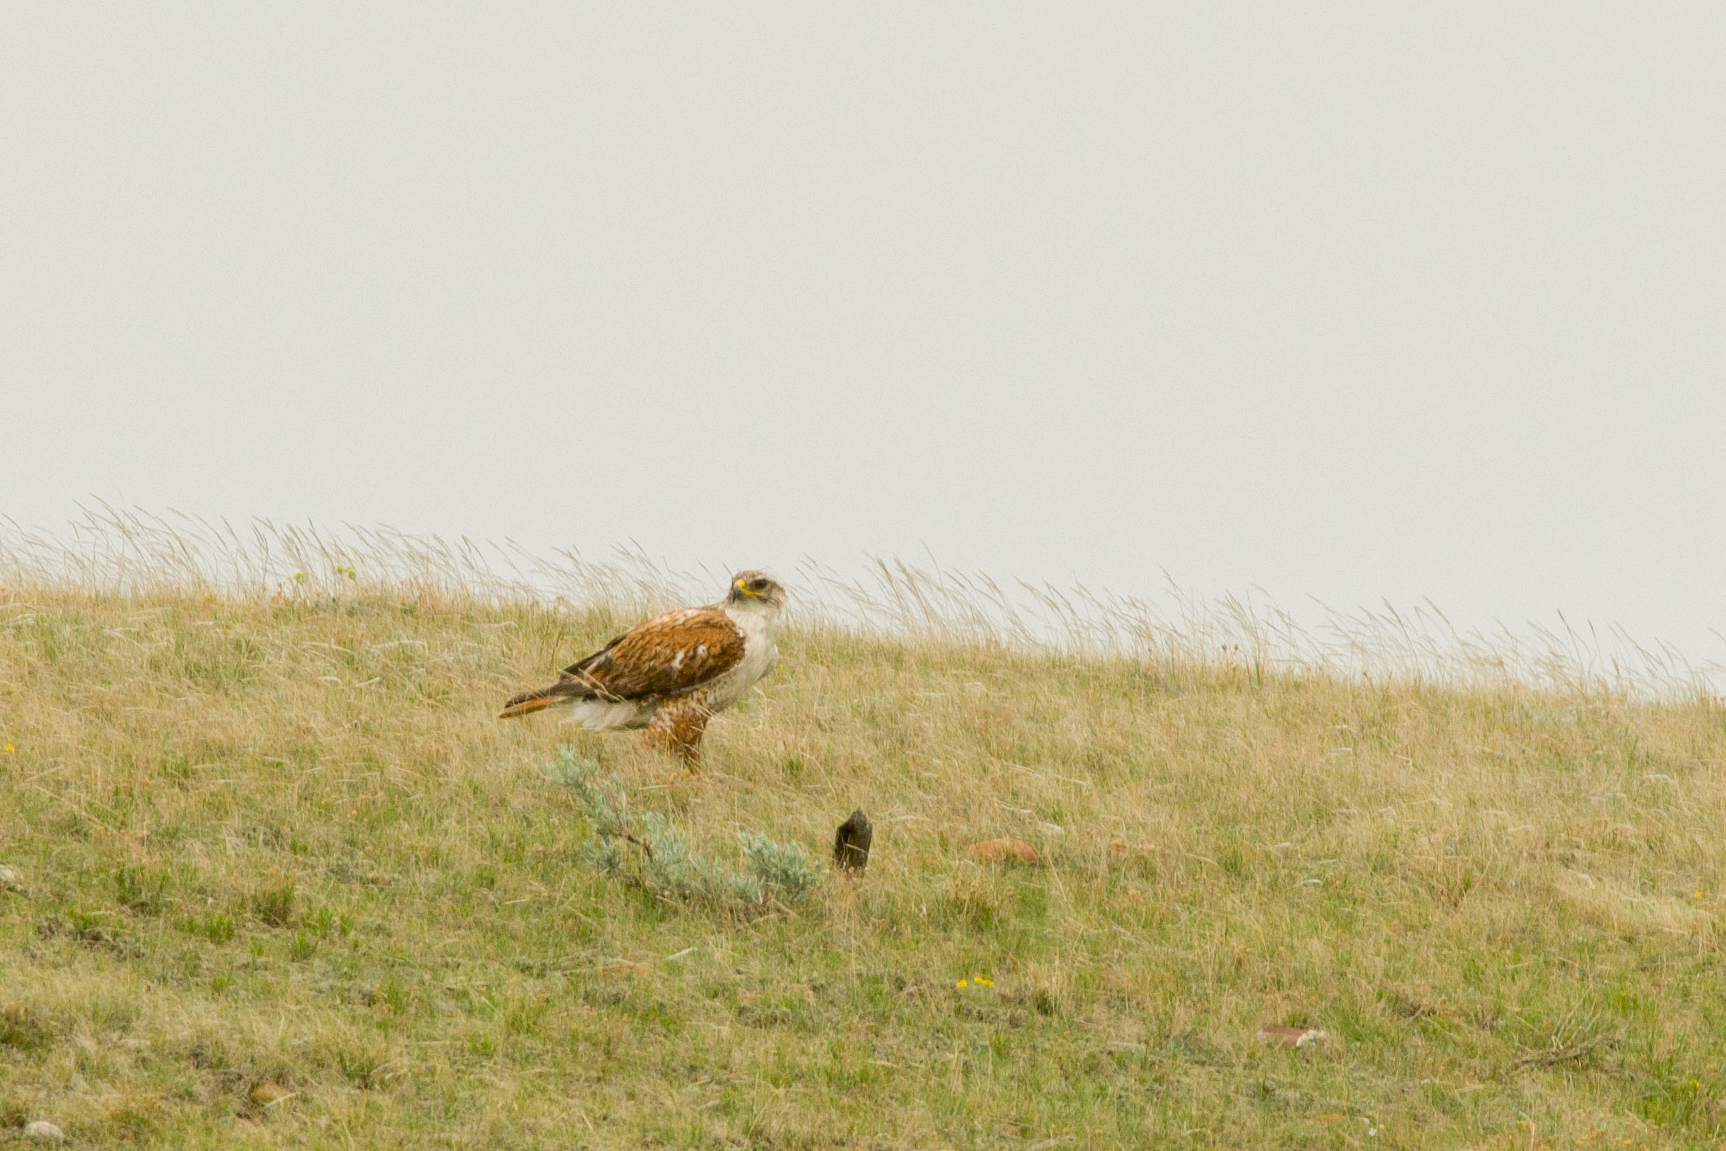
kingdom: Animalia
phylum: Chordata
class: Aves
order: Accipitriformes
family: Accipitridae
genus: Buteo
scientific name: Buteo regalis
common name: Ferruginous hawk
